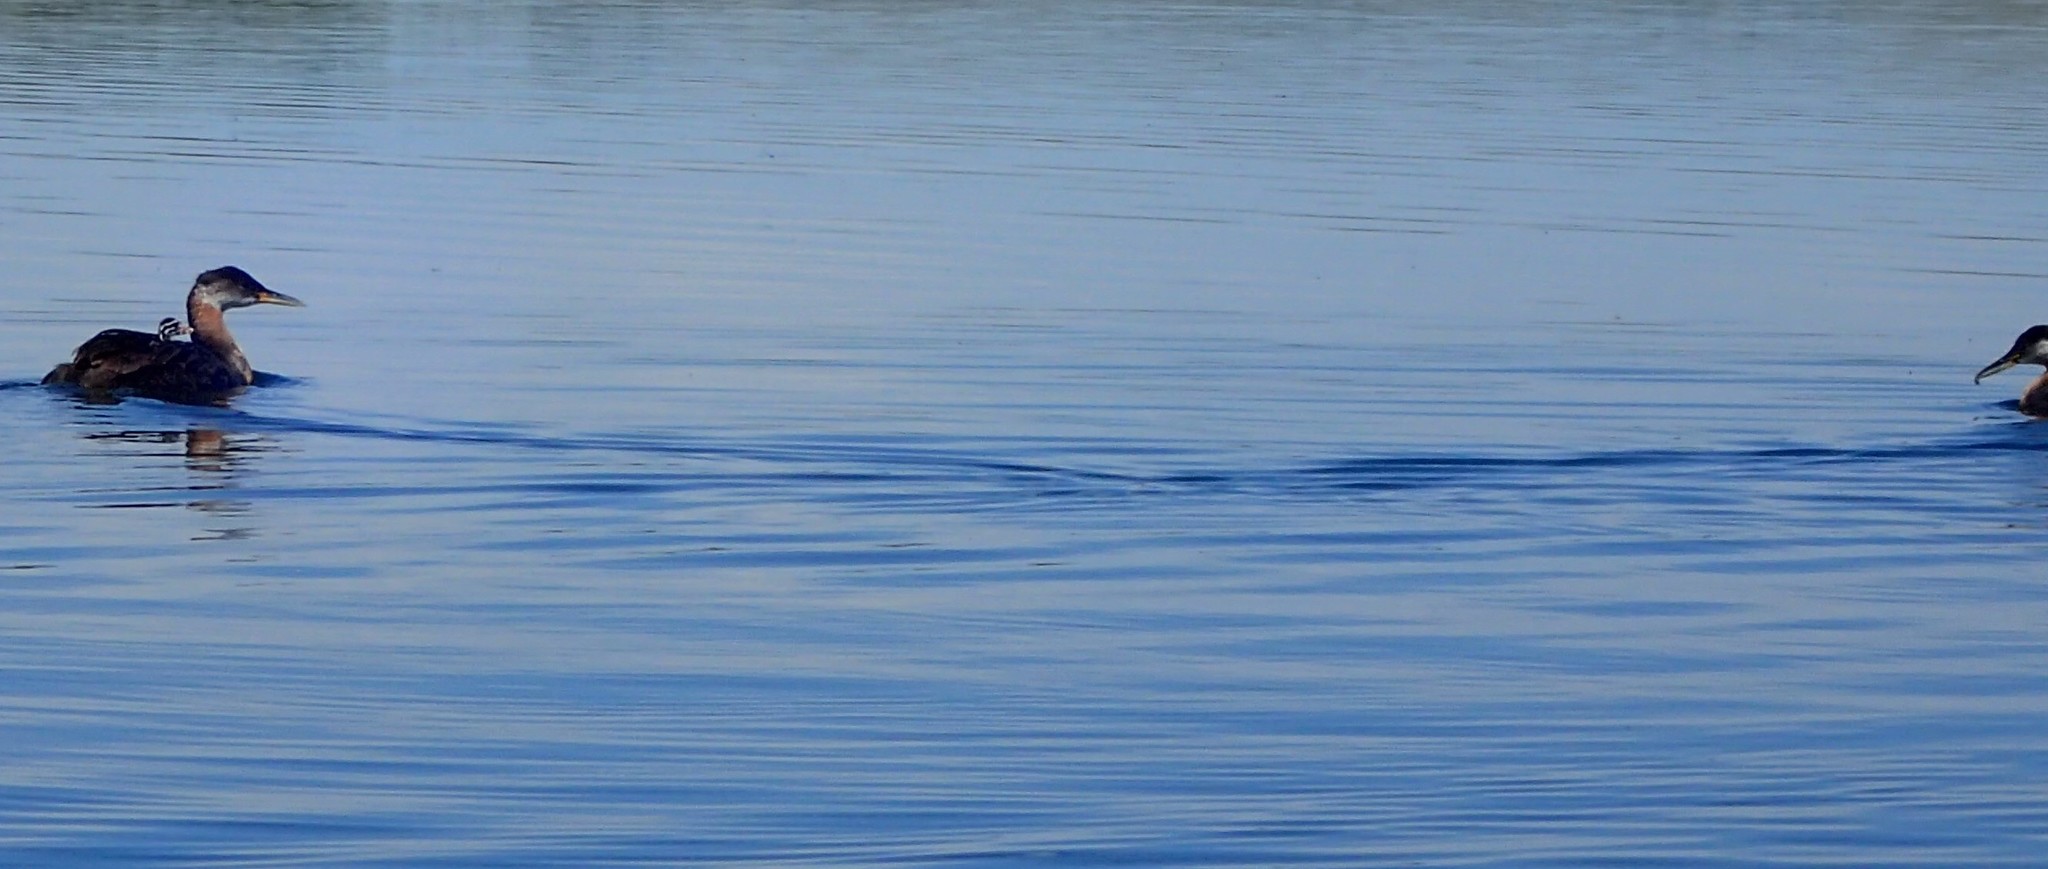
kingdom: Animalia
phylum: Chordata
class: Aves
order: Podicipediformes
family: Podicipedidae
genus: Podiceps
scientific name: Podiceps grisegena
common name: Red-necked grebe
